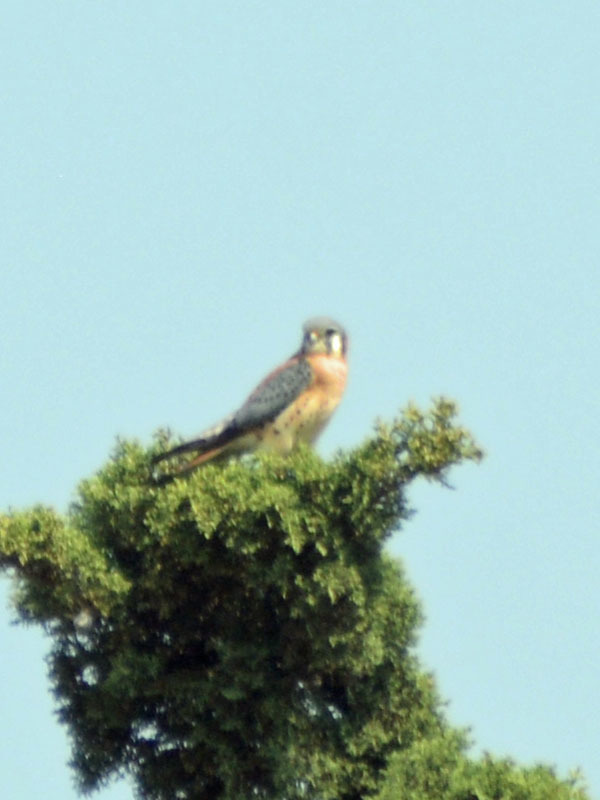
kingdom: Animalia
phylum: Chordata
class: Aves
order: Falconiformes
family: Falconidae
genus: Falco
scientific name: Falco sparverius
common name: American kestrel
